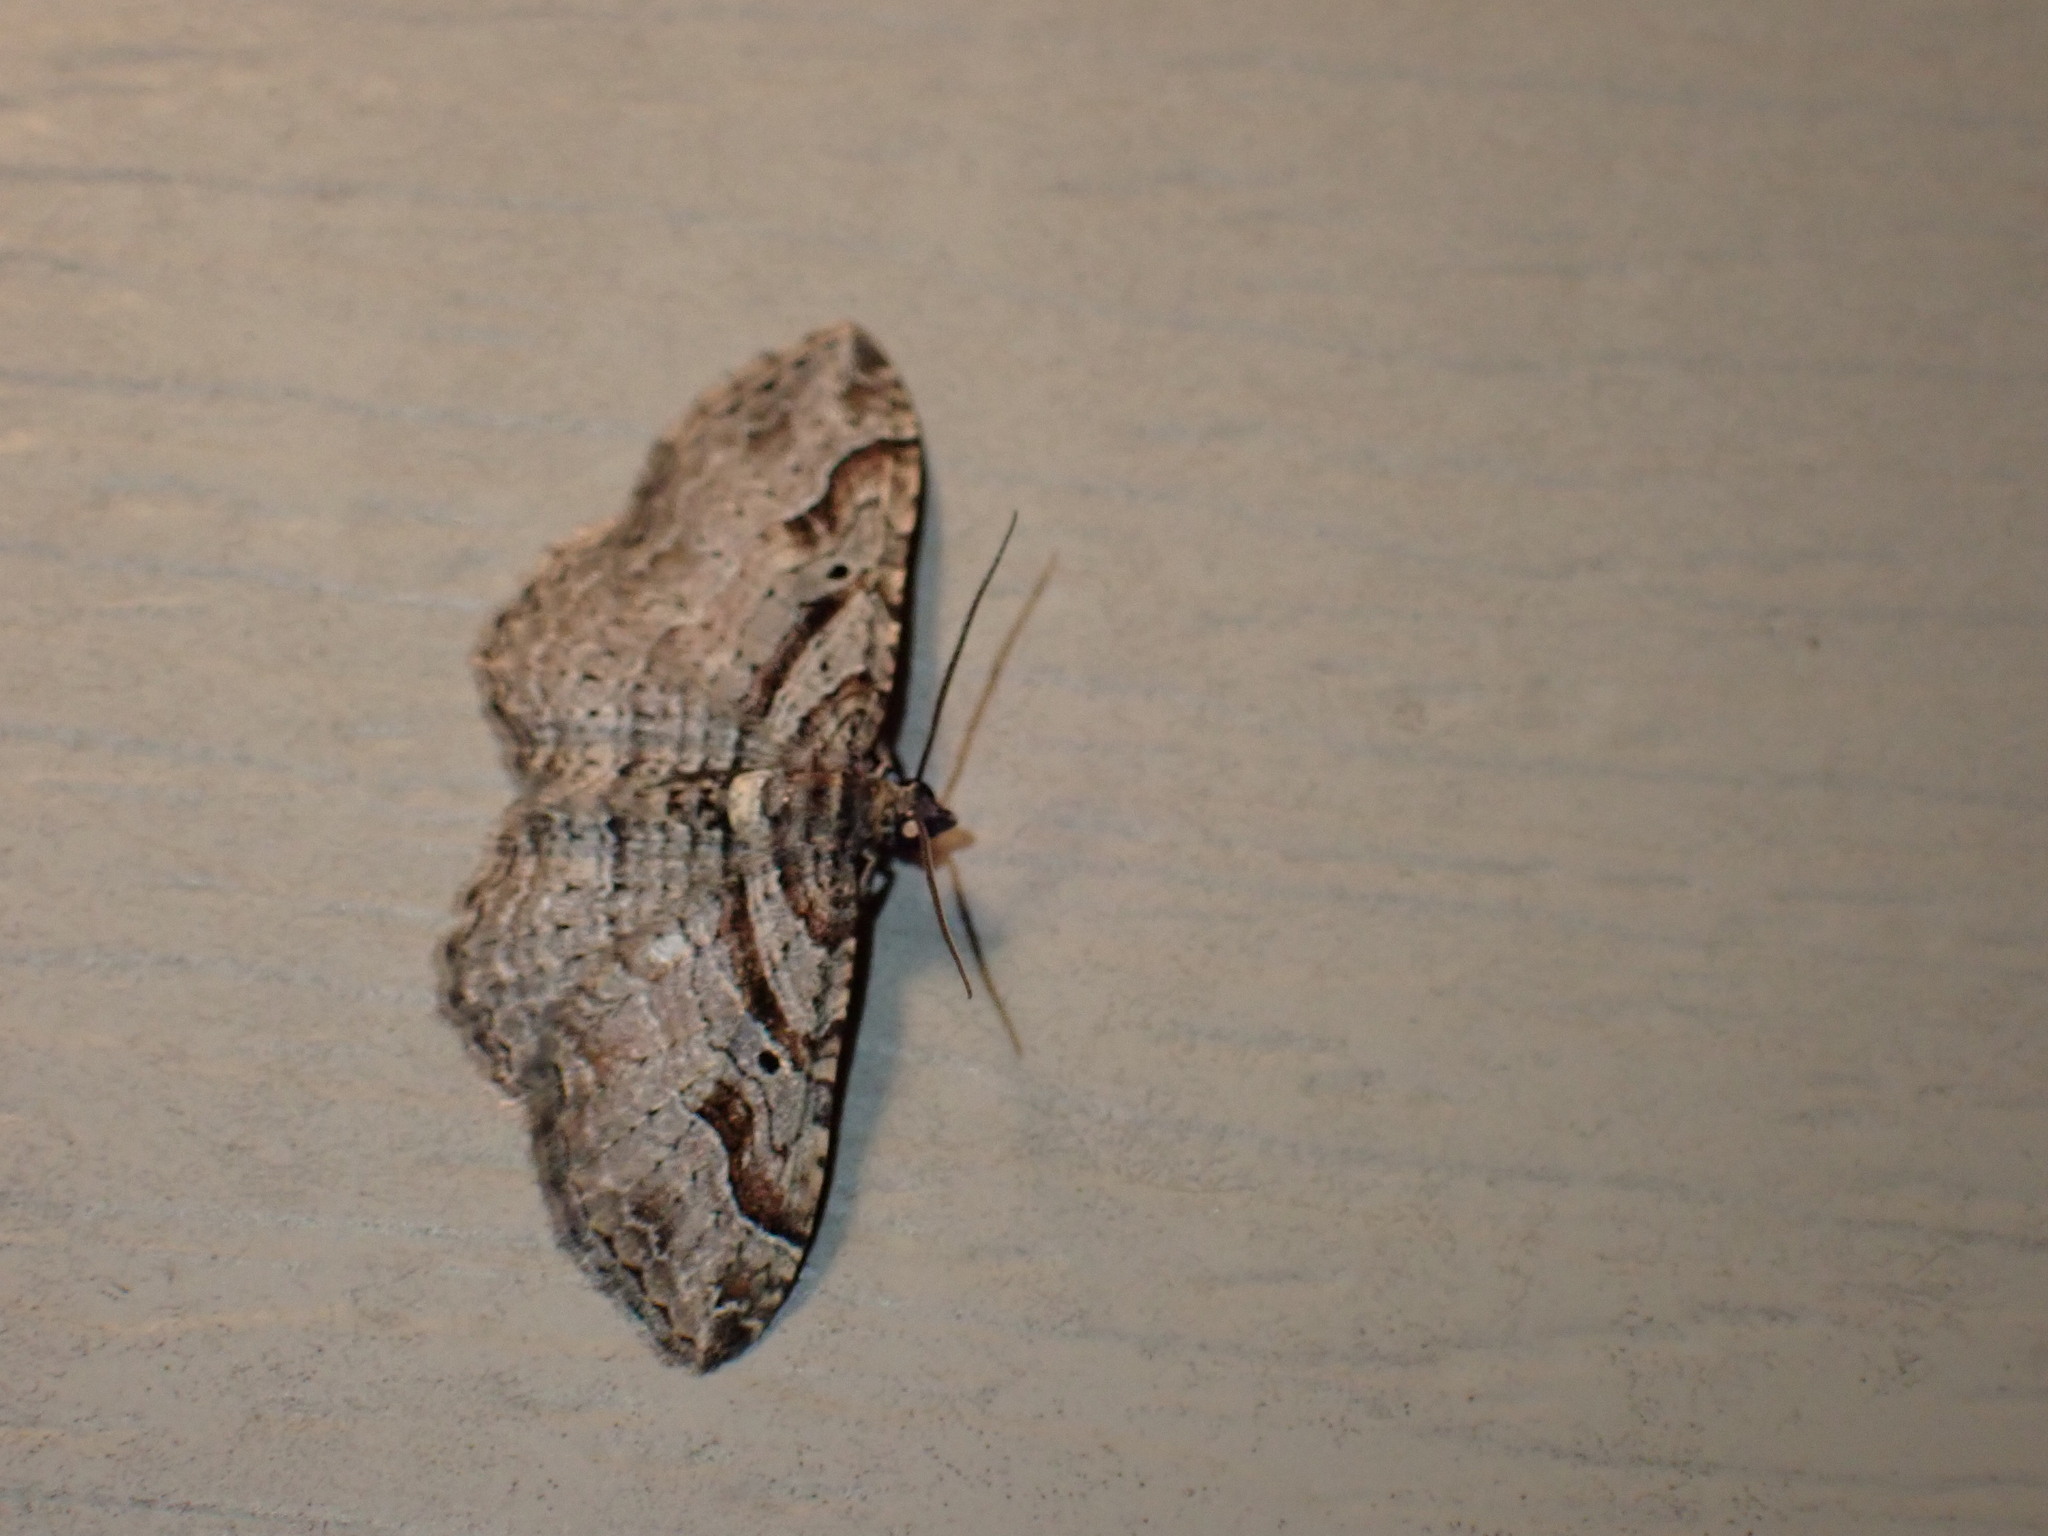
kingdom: Animalia
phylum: Arthropoda
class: Insecta
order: Lepidoptera
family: Geometridae
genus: Costaconvexa
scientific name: Costaconvexa centrostrigaria
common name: Bent-line carpet
